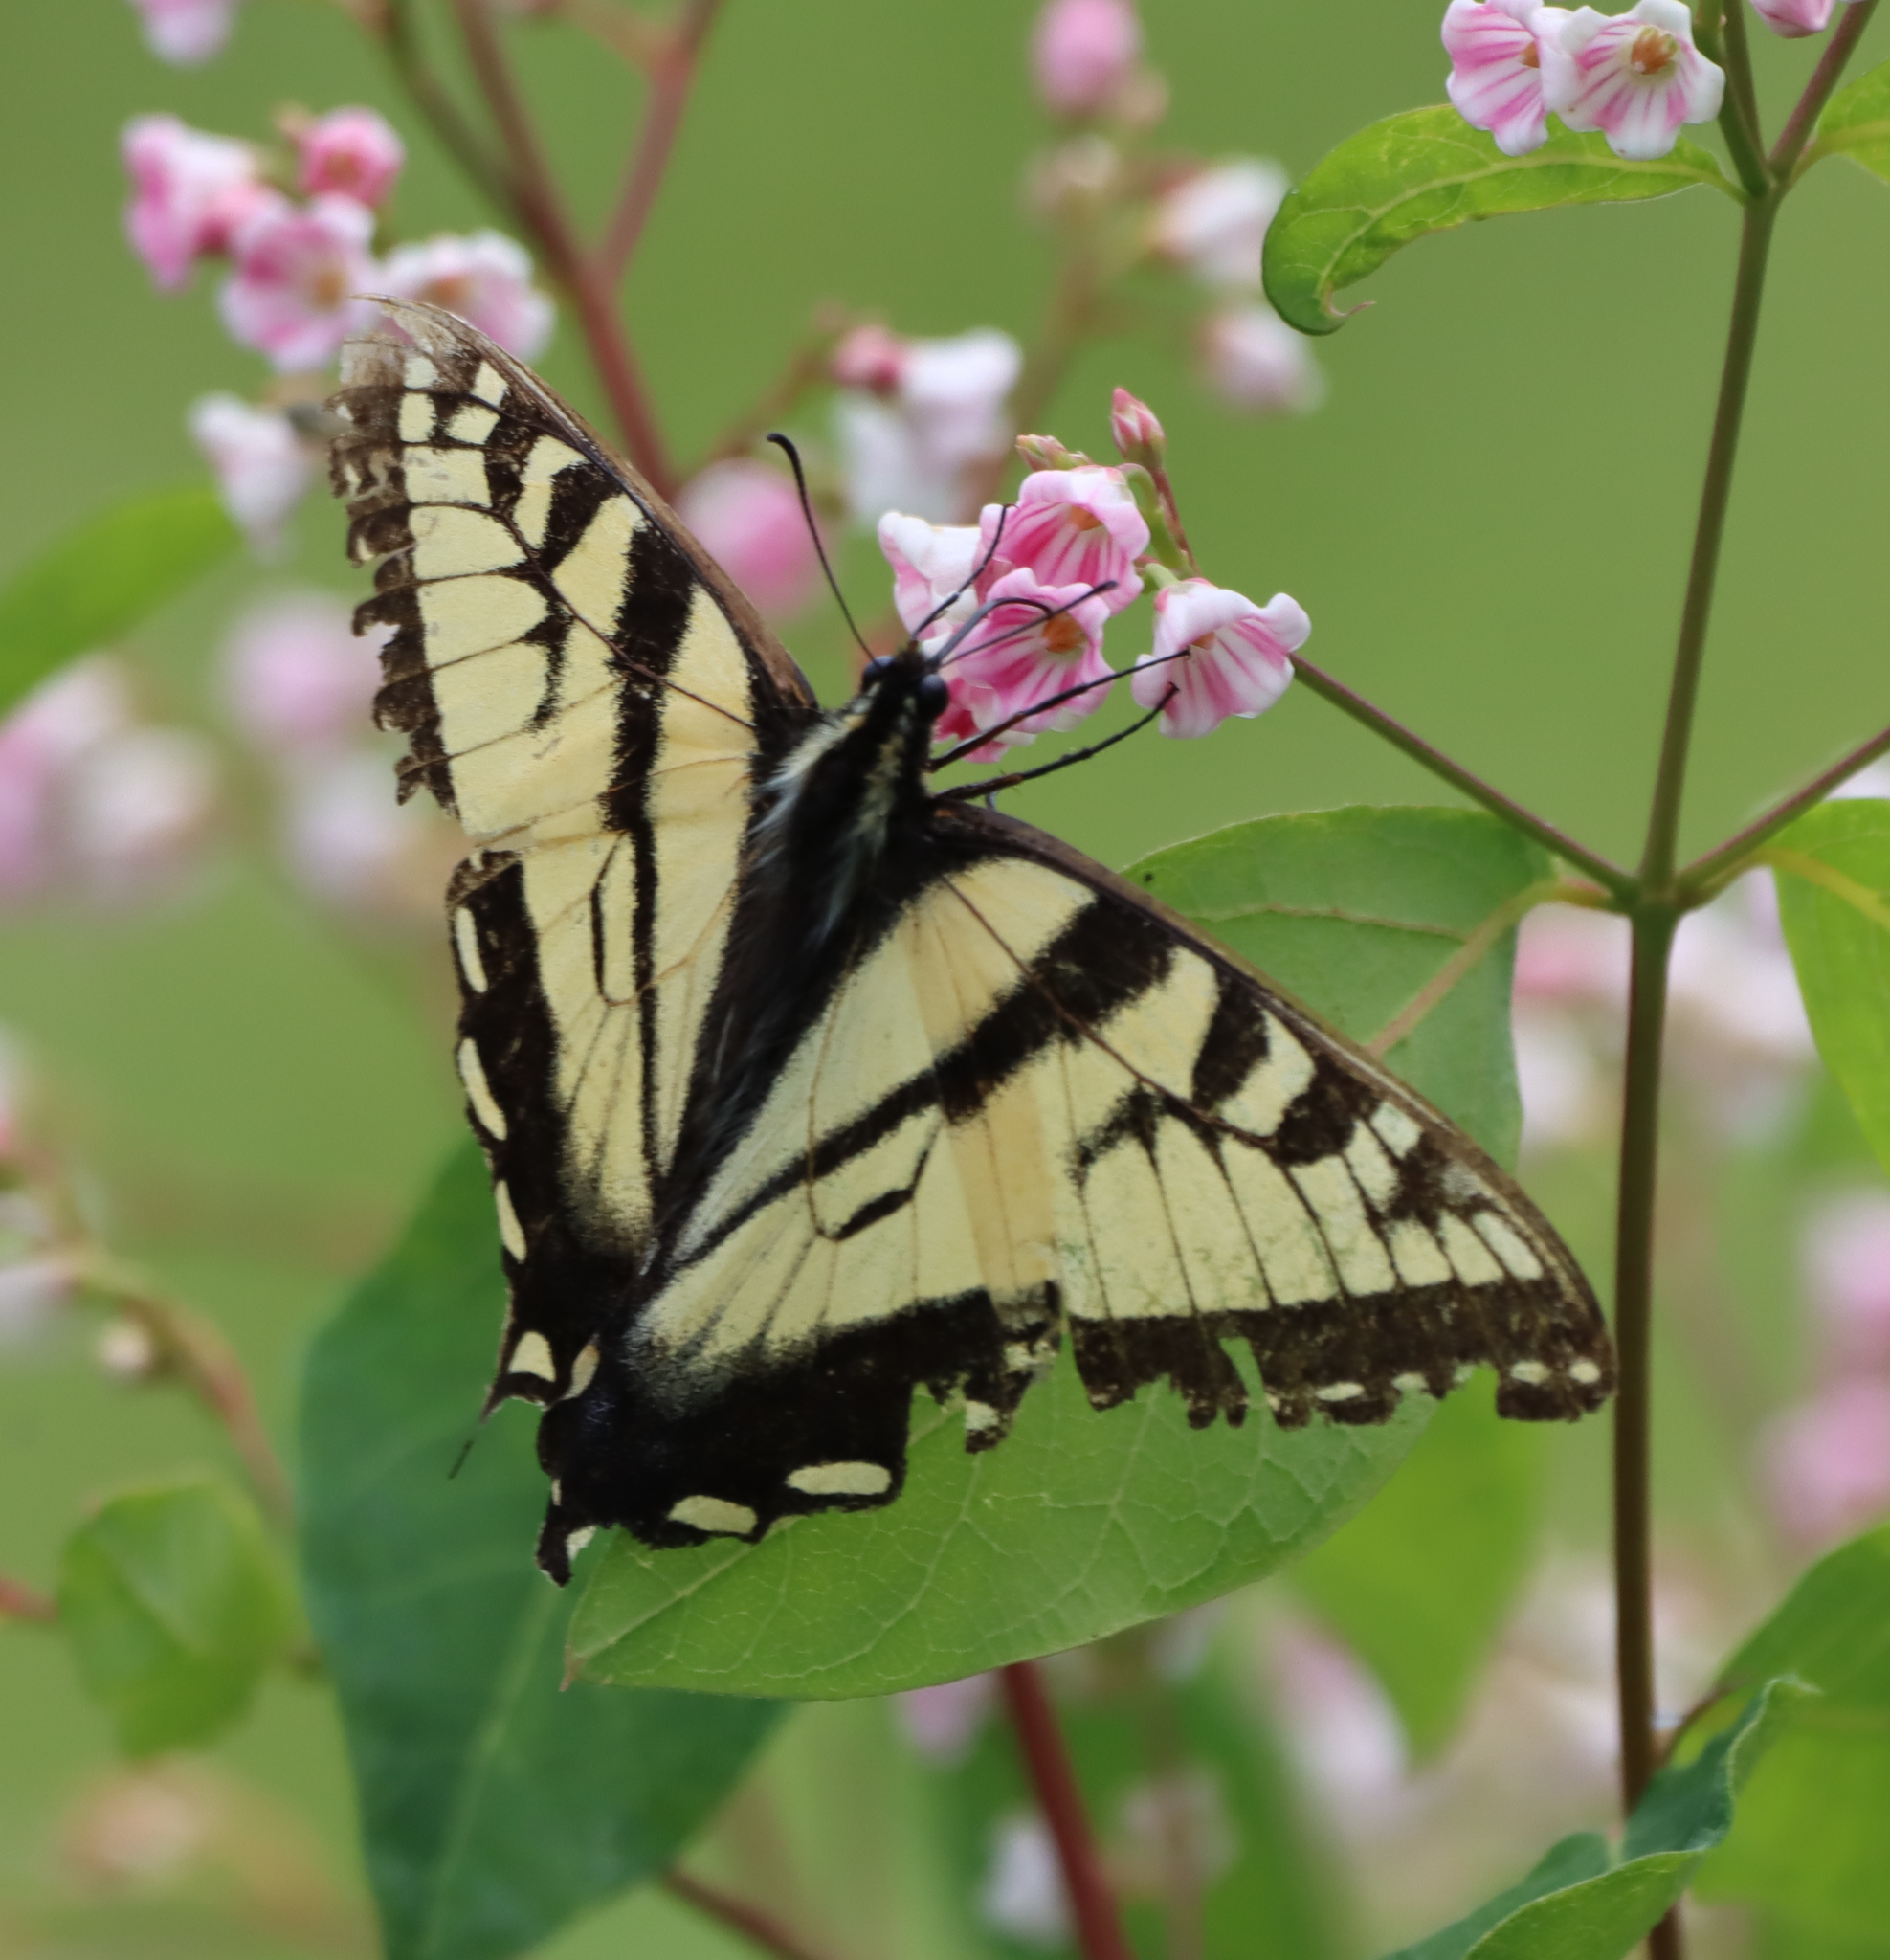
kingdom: Animalia
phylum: Arthropoda
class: Insecta
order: Lepidoptera
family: Papilionidae
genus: Papilio
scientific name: Papilio canadensis
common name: Canadian tiger swallowtail
